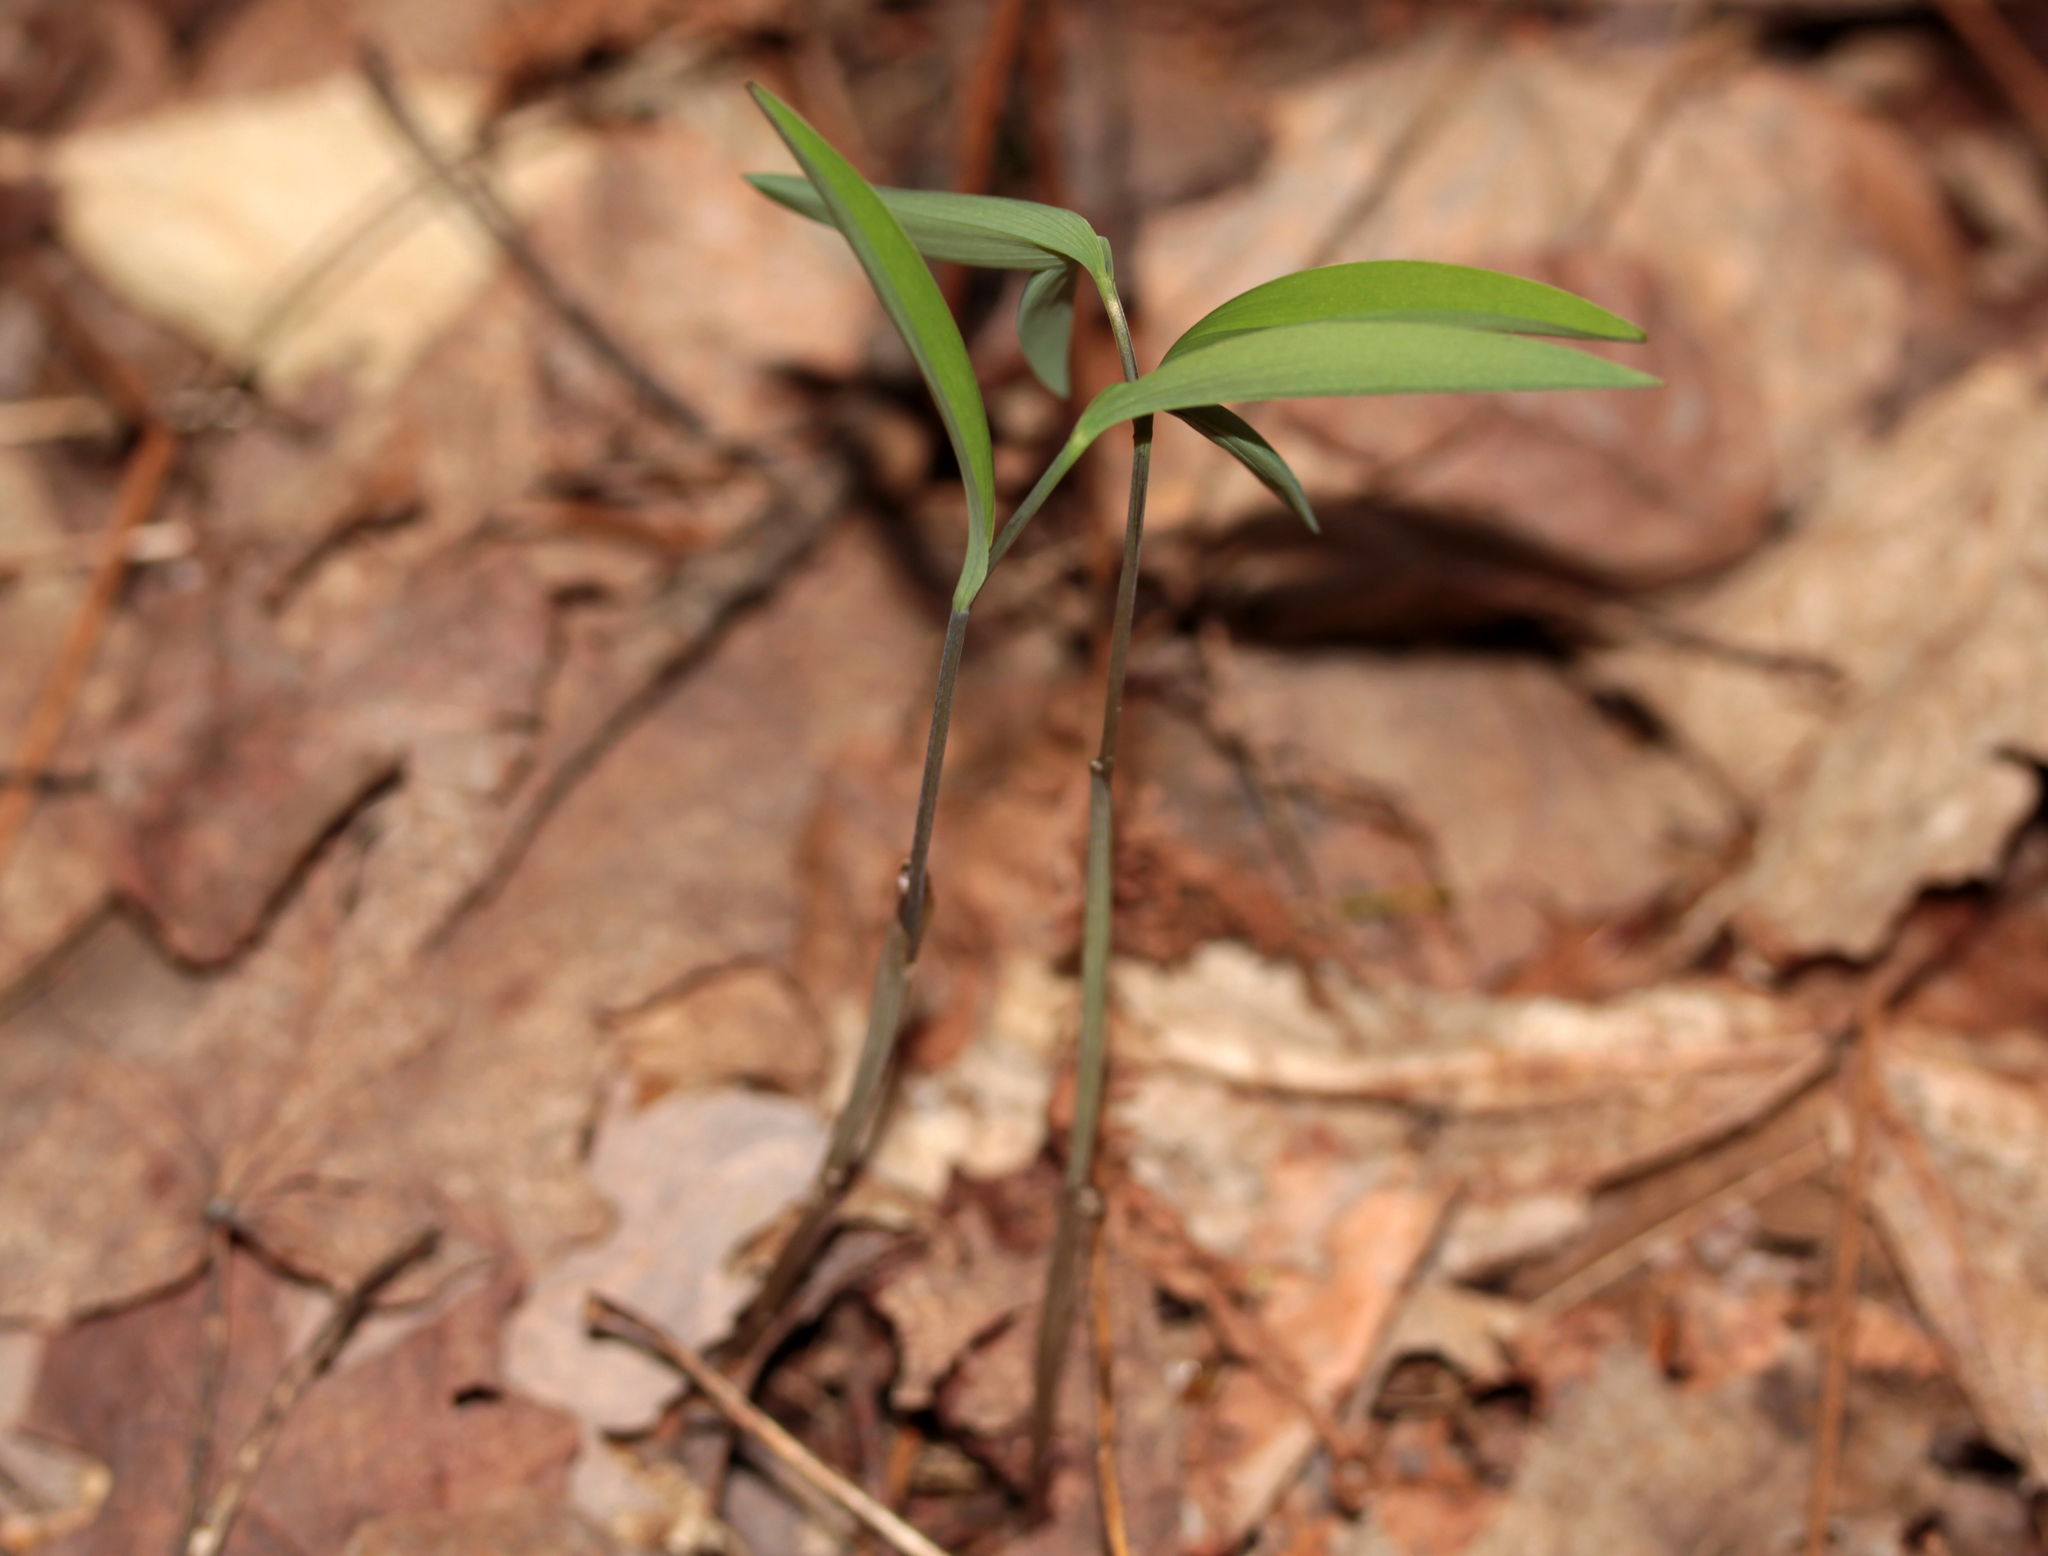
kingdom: Plantae
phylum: Tracheophyta
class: Liliopsida
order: Liliales
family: Colchicaceae
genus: Uvularia
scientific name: Uvularia sessilifolia
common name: Straw-lily
